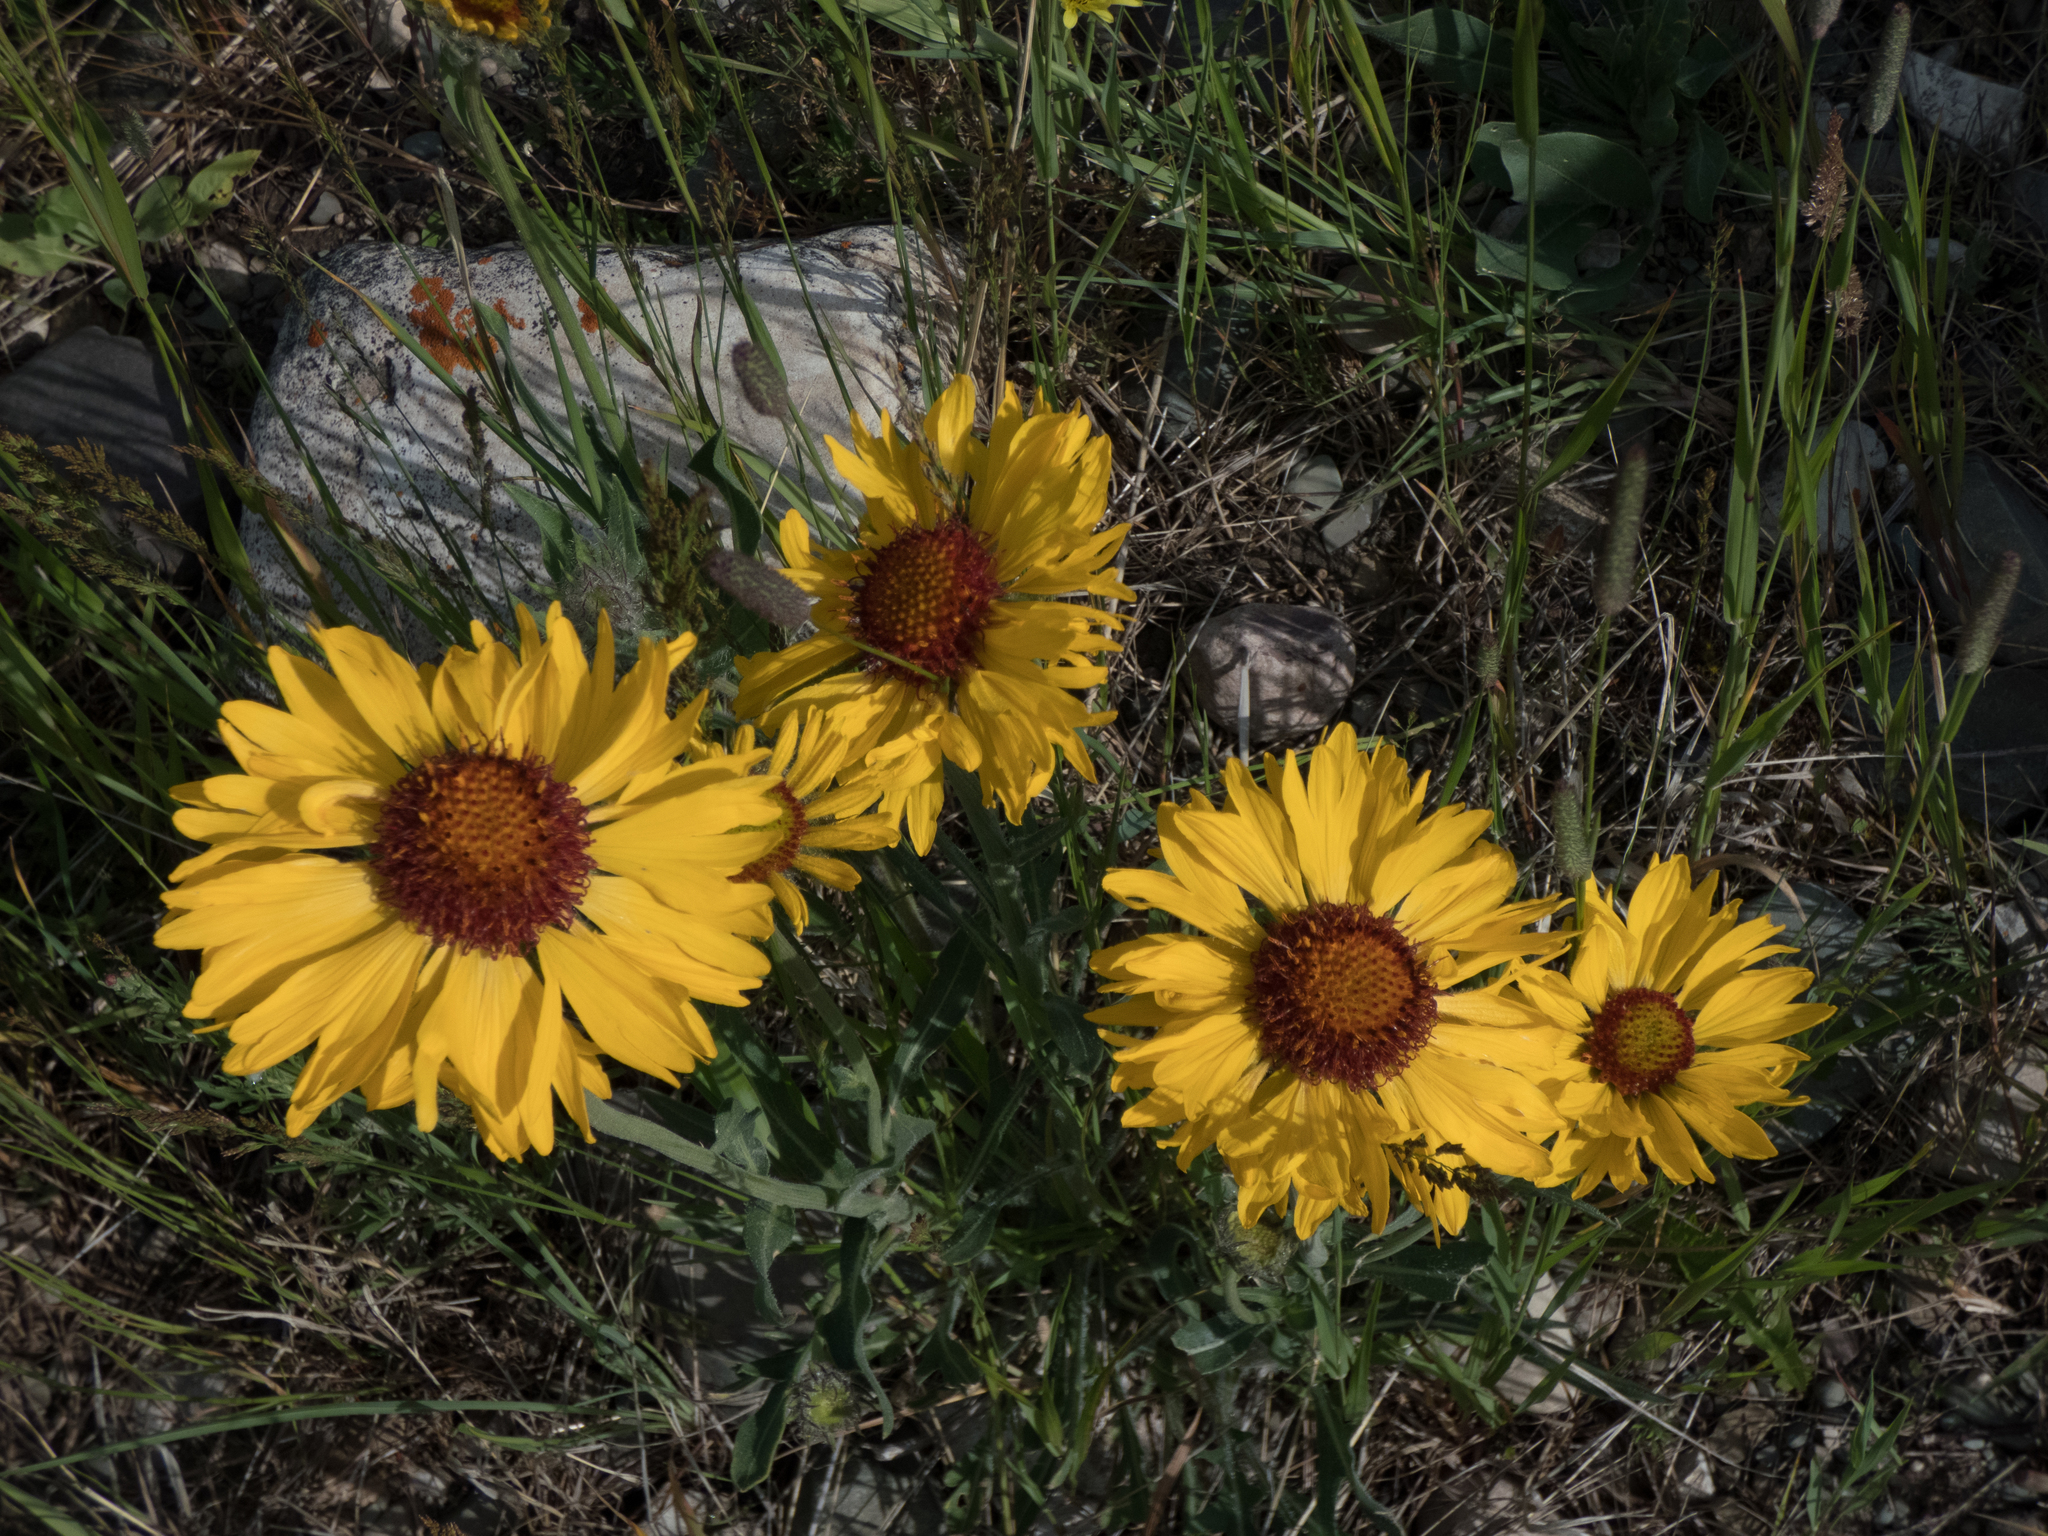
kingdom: Plantae
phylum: Tracheophyta
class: Magnoliopsida
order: Asterales
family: Asteraceae
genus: Gaillardia
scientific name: Gaillardia aristata
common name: Blanket-flower
